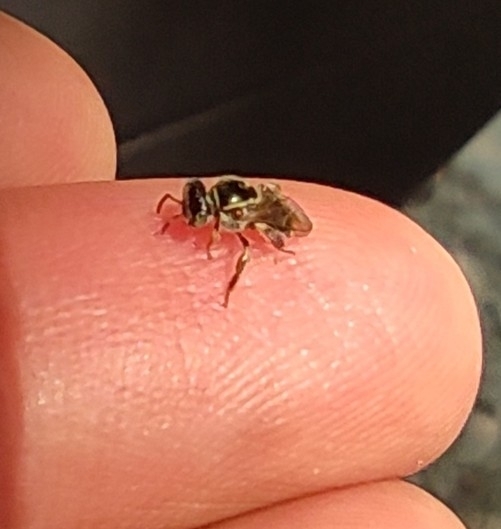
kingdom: Animalia
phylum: Arthropoda
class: Insecta
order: Hymenoptera
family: Apidae
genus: Plebeia
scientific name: Plebeia frontalis
